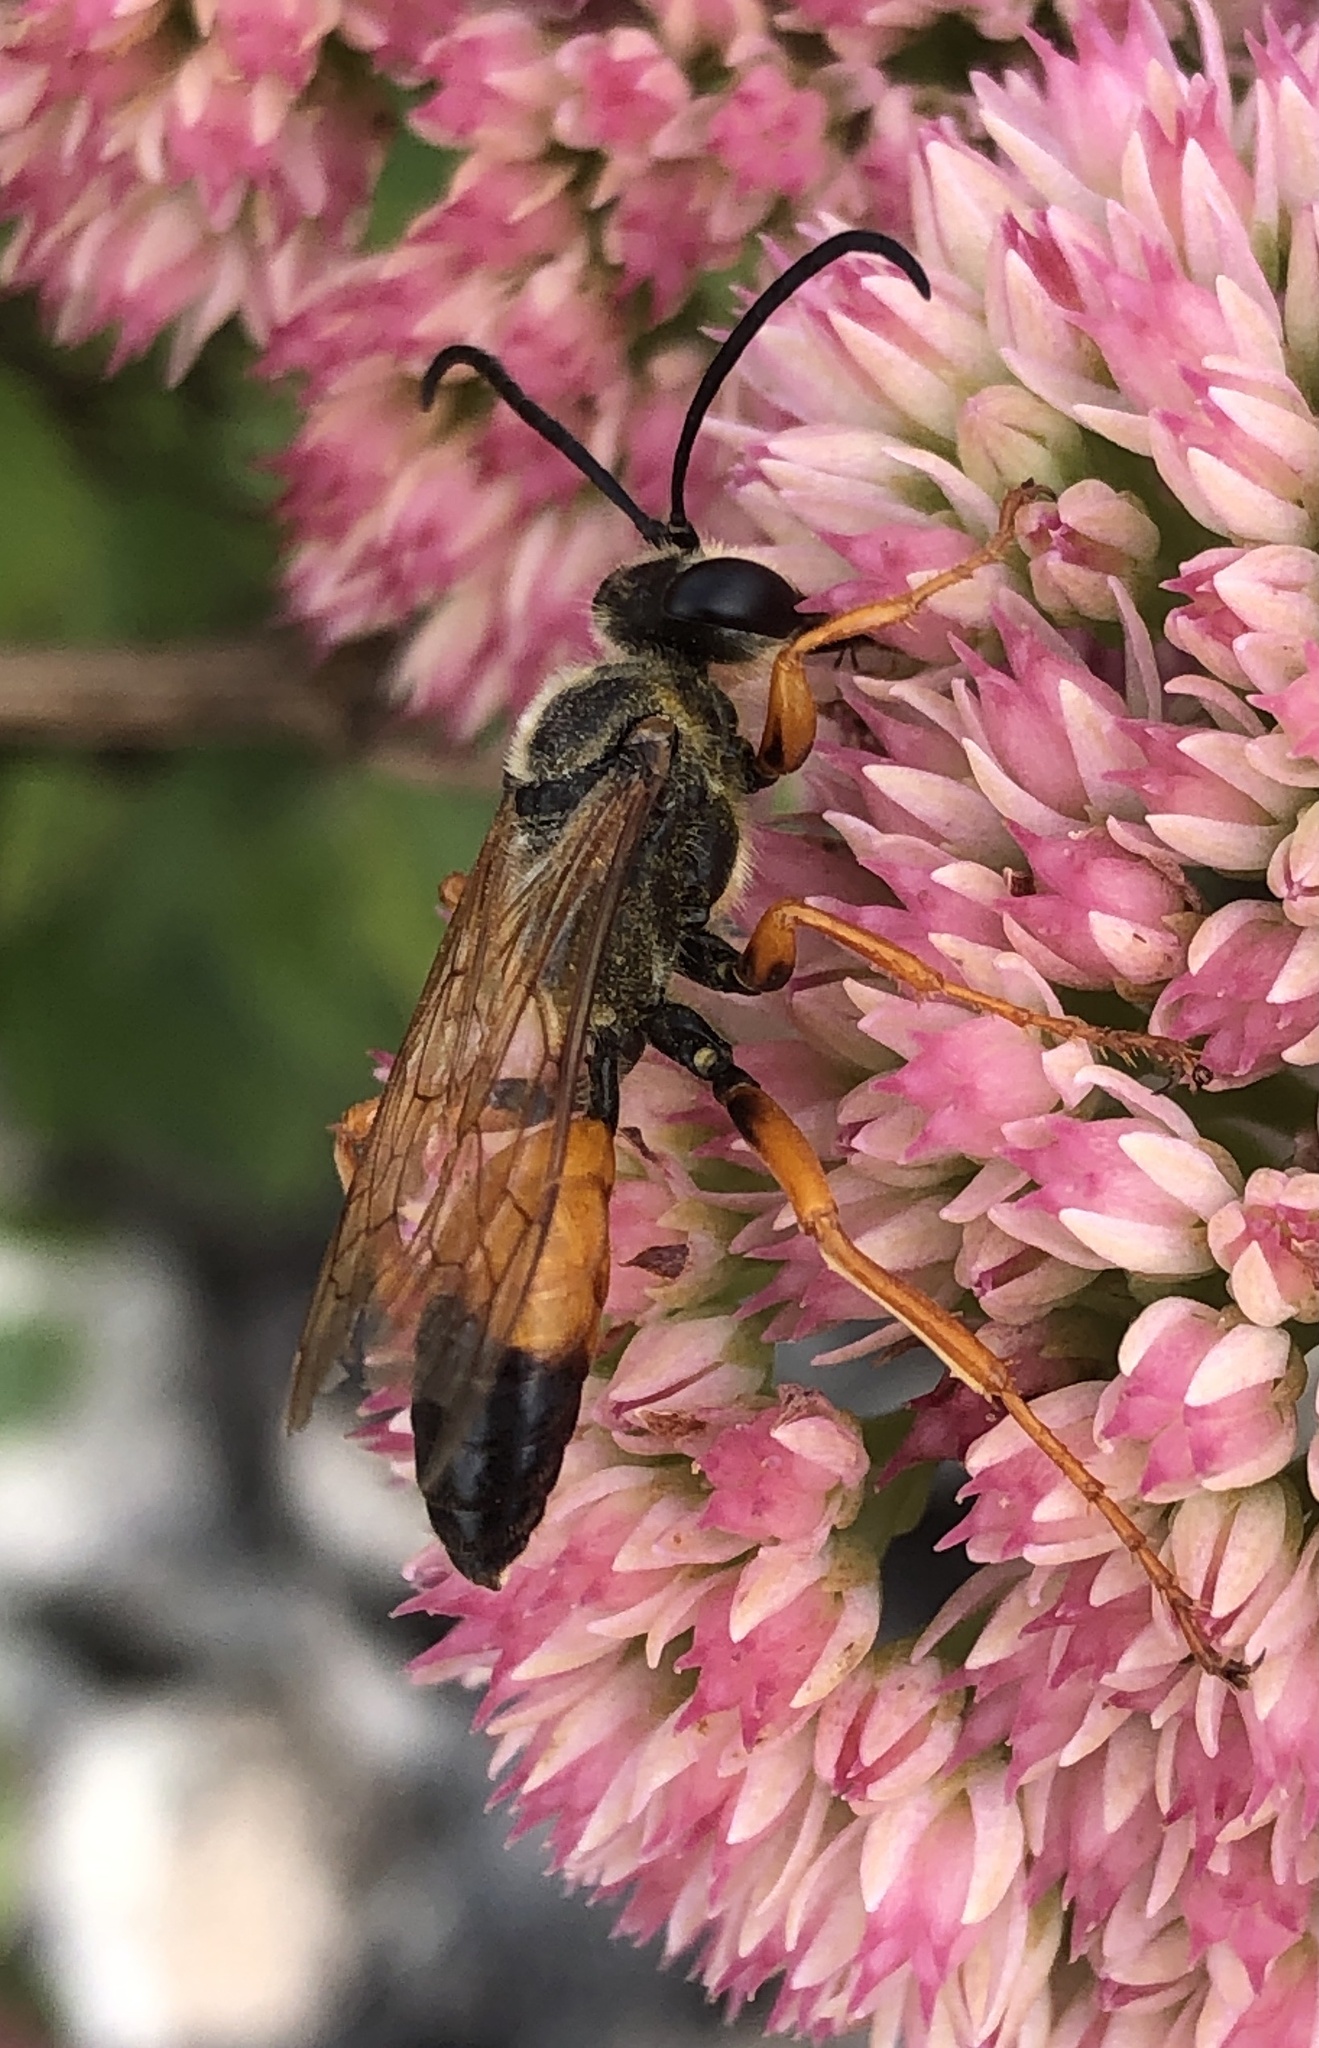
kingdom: Animalia
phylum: Arthropoda
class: Insecta
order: Hymenoptera
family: Sphecidae
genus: Sphex
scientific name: Sphex ichneumoneus
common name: Great golden digger wasp
